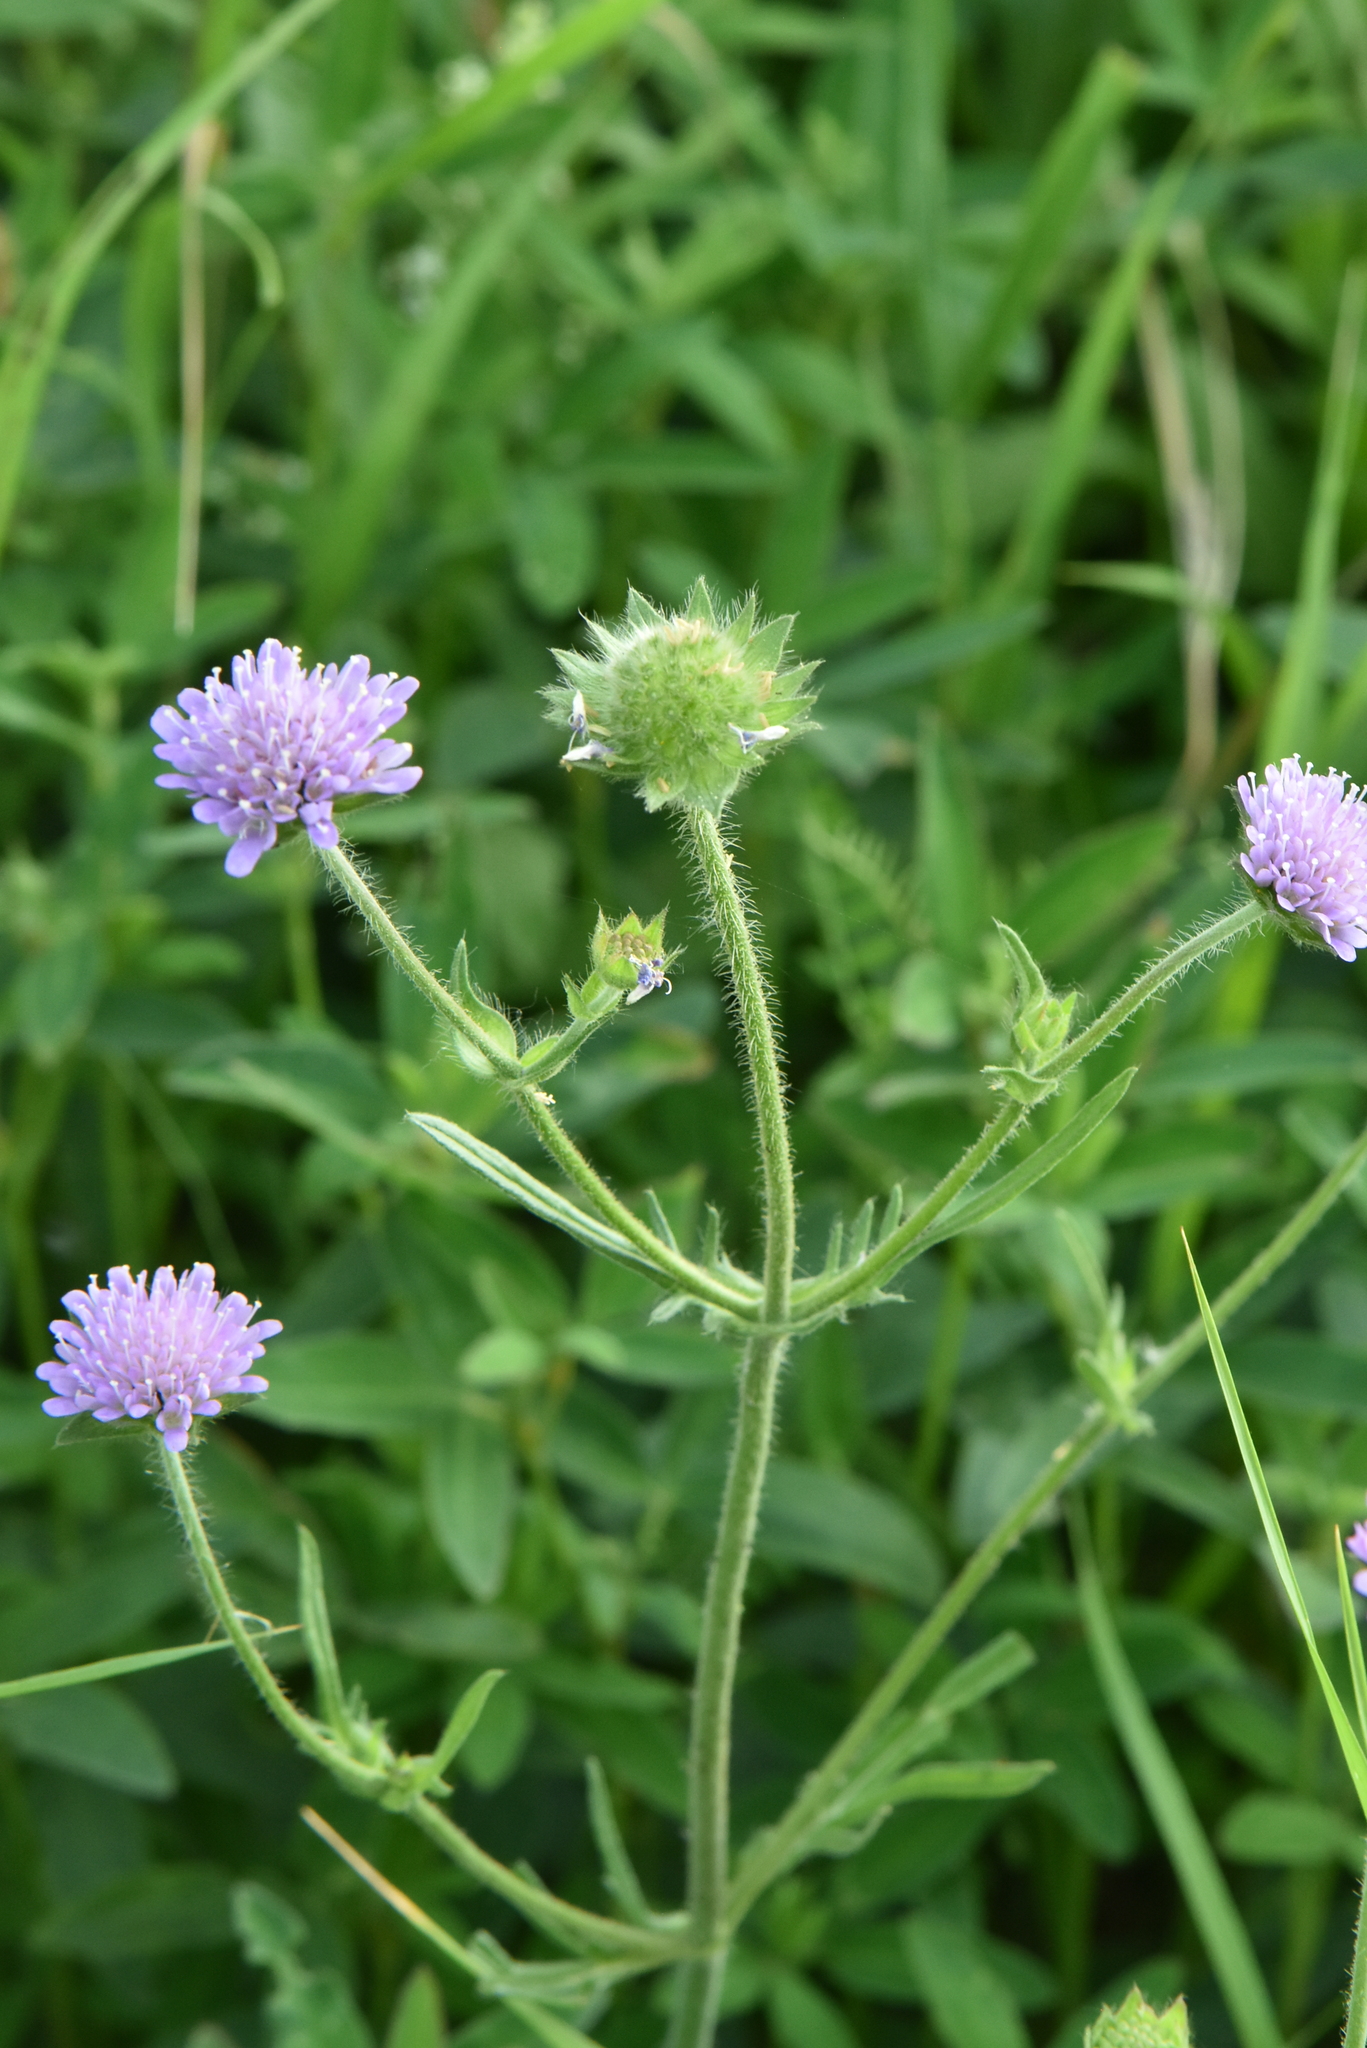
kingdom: Plantae
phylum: Tracheophyta
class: Magnoliopsida
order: Dipsacales
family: Caprifoliaceae
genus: Knautia
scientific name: Knautia arvensis
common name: Field scabiosa
